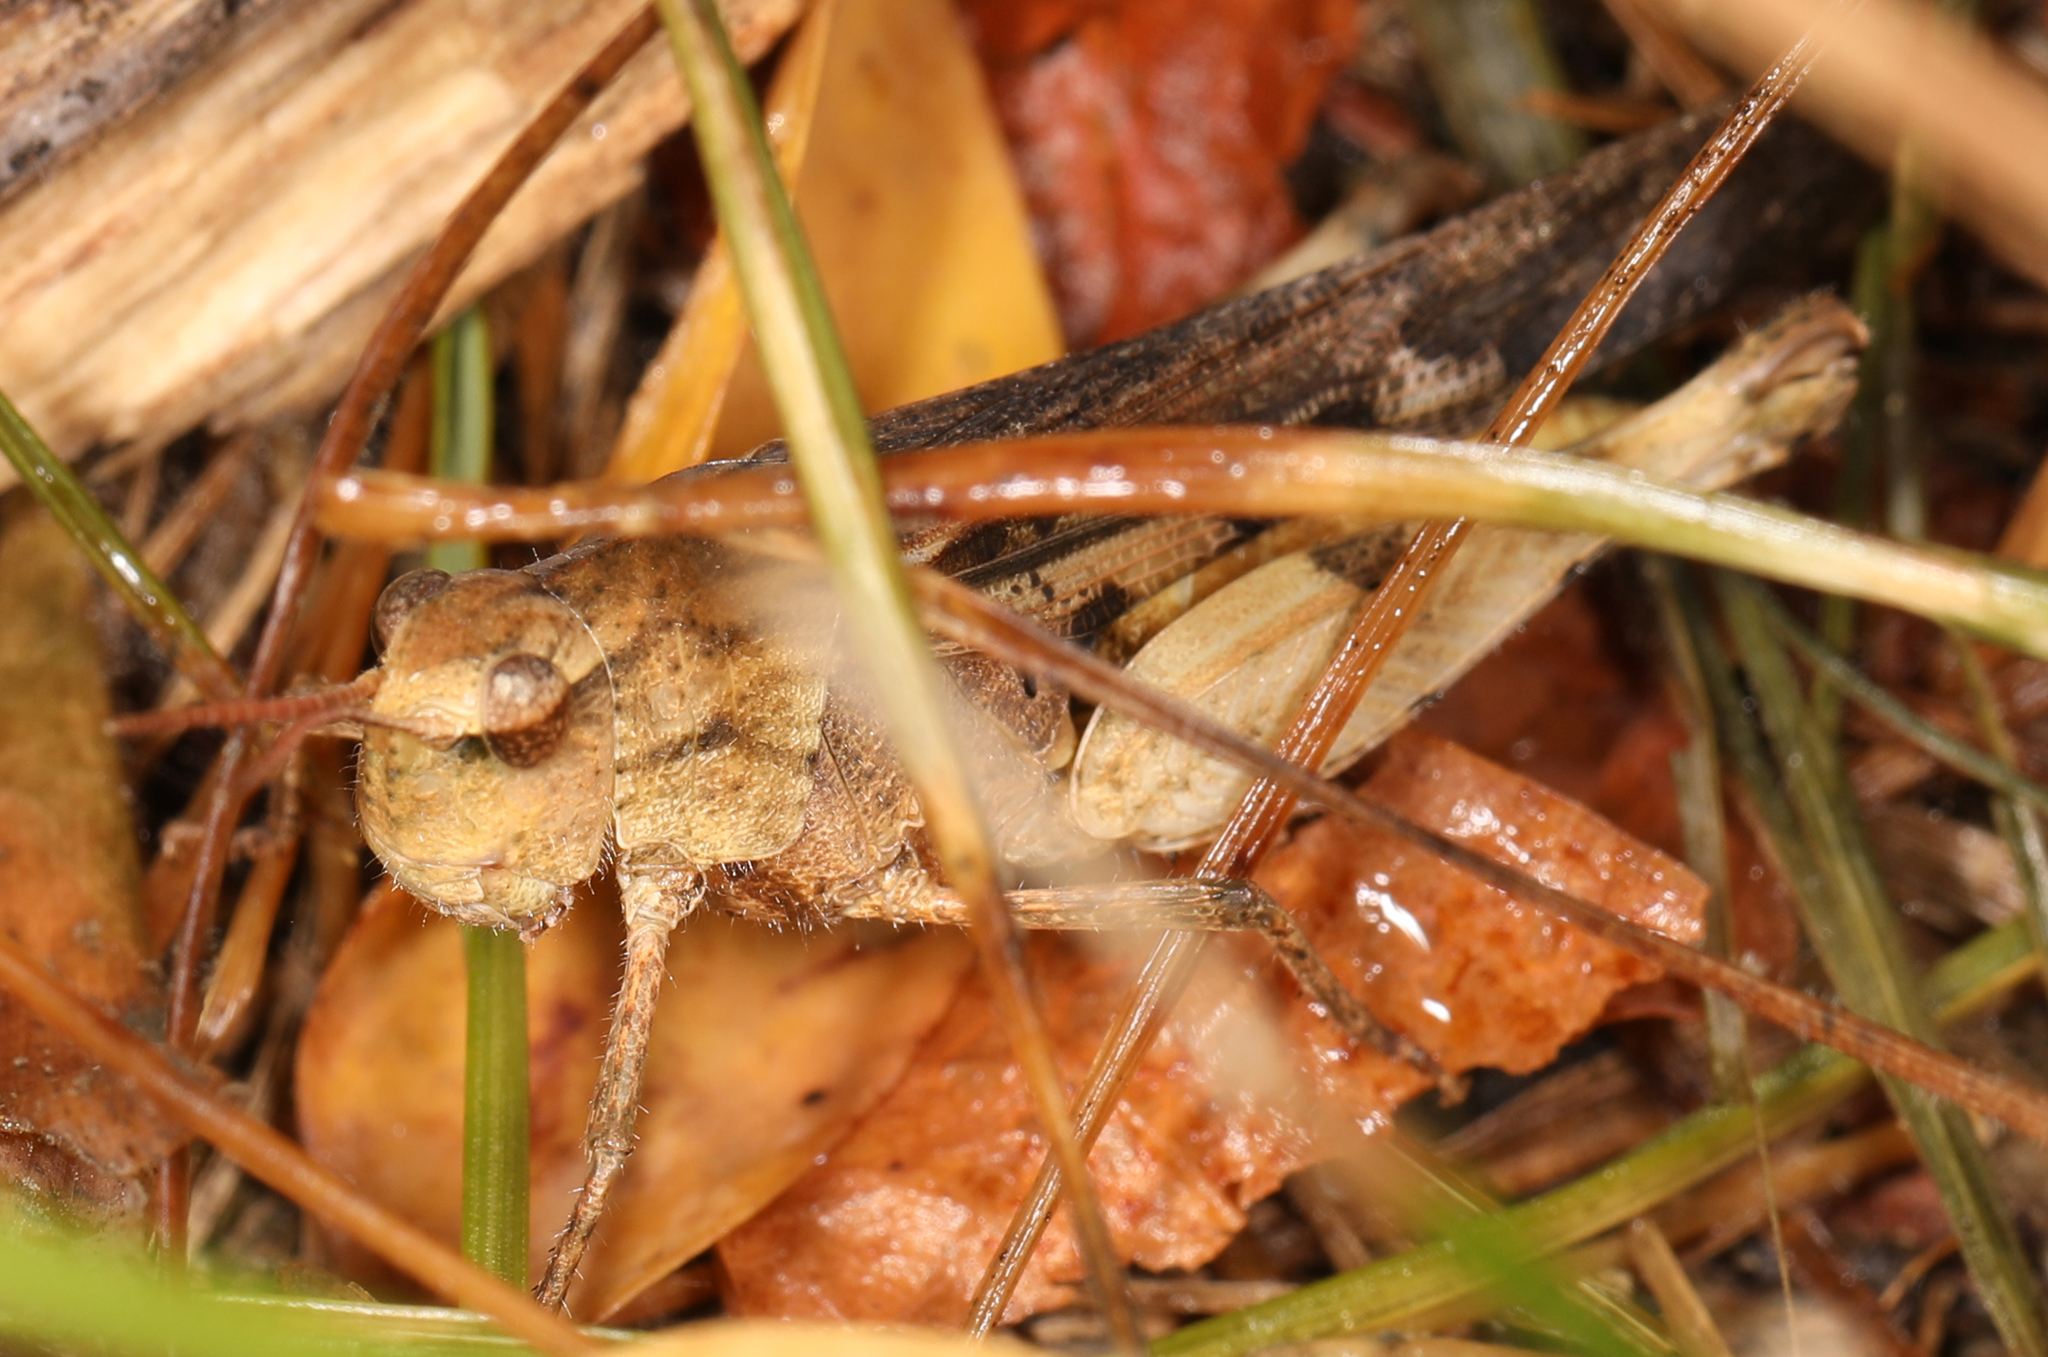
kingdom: Animalia
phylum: Arthropoda
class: Insecta
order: Orthoptera
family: Acrididae
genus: Chortophaga
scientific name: Chortophaga viridifasciata
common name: Green-striped grasshopper
